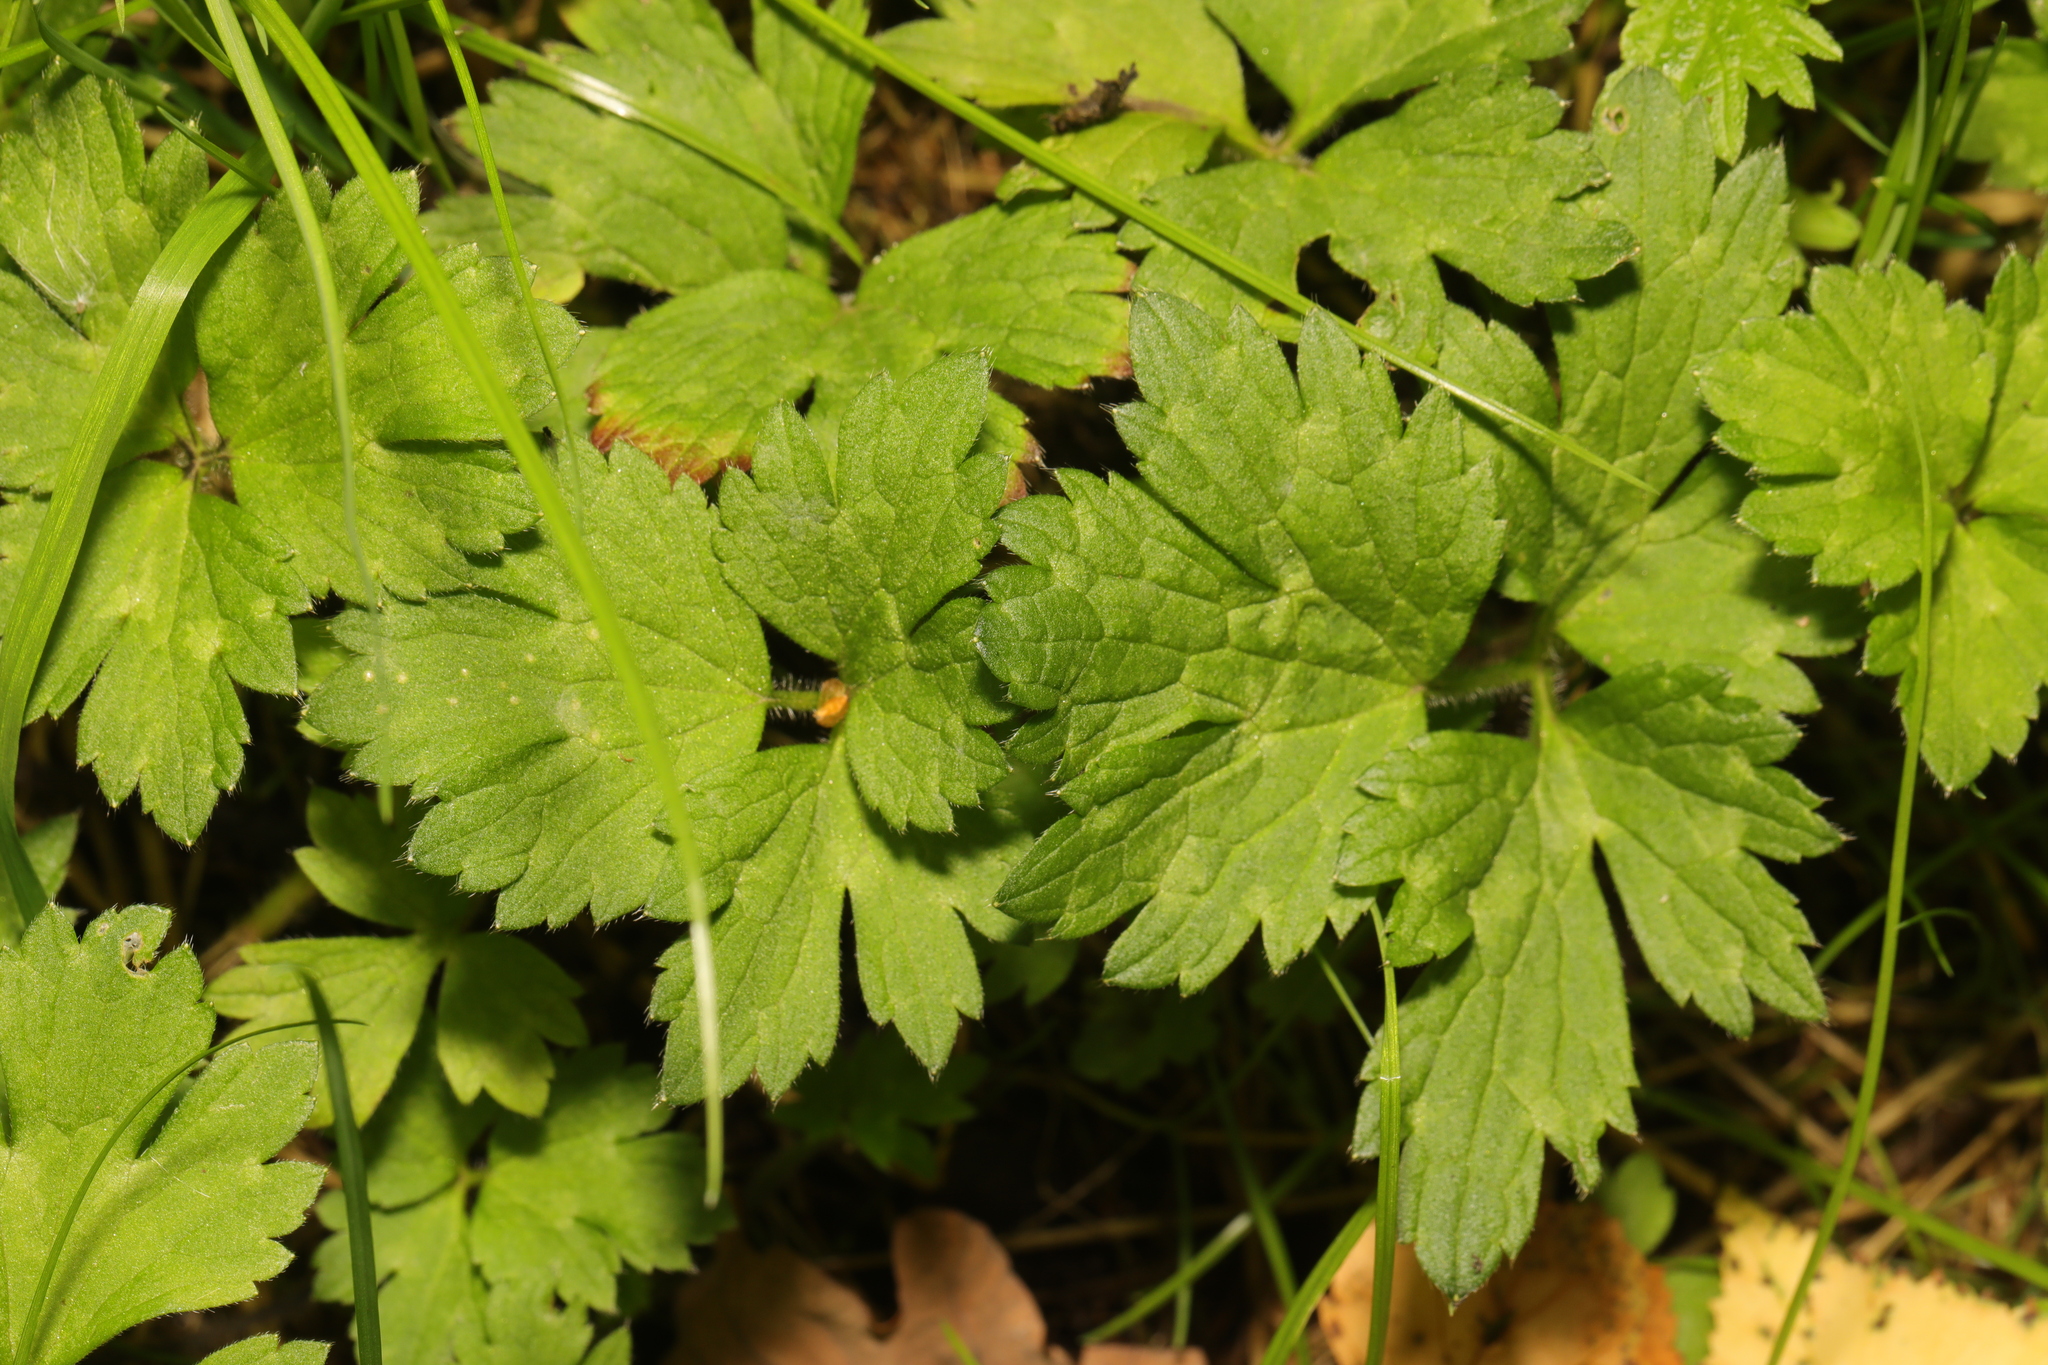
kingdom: Plantae
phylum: Tracheophyta
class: Magnoliopsida
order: Ranunculales
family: Ranunculaceae
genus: Ranunculus
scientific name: Ranunculus repens
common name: Creeping buttercup
